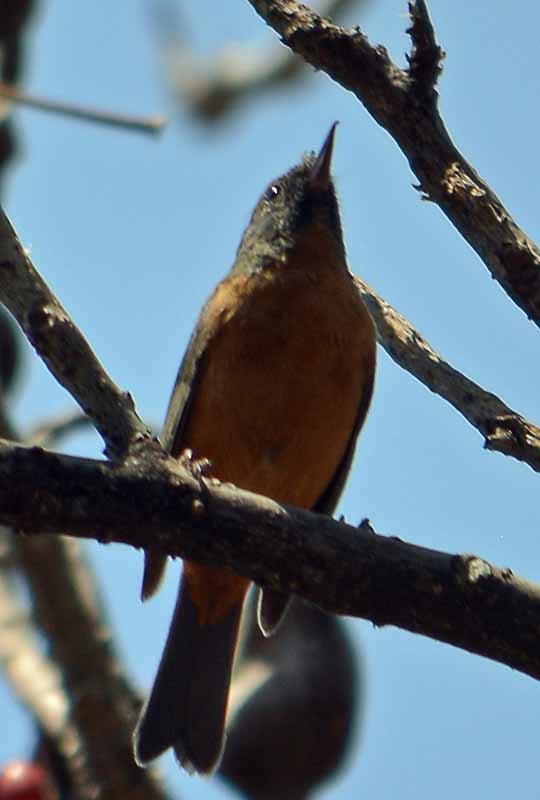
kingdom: Animalia
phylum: Chordata
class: Aves
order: Passeriformes
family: Thraupidae
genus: Diglossa
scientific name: Diglossa baritula
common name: Cinnamon-bellied flowerpiercer
